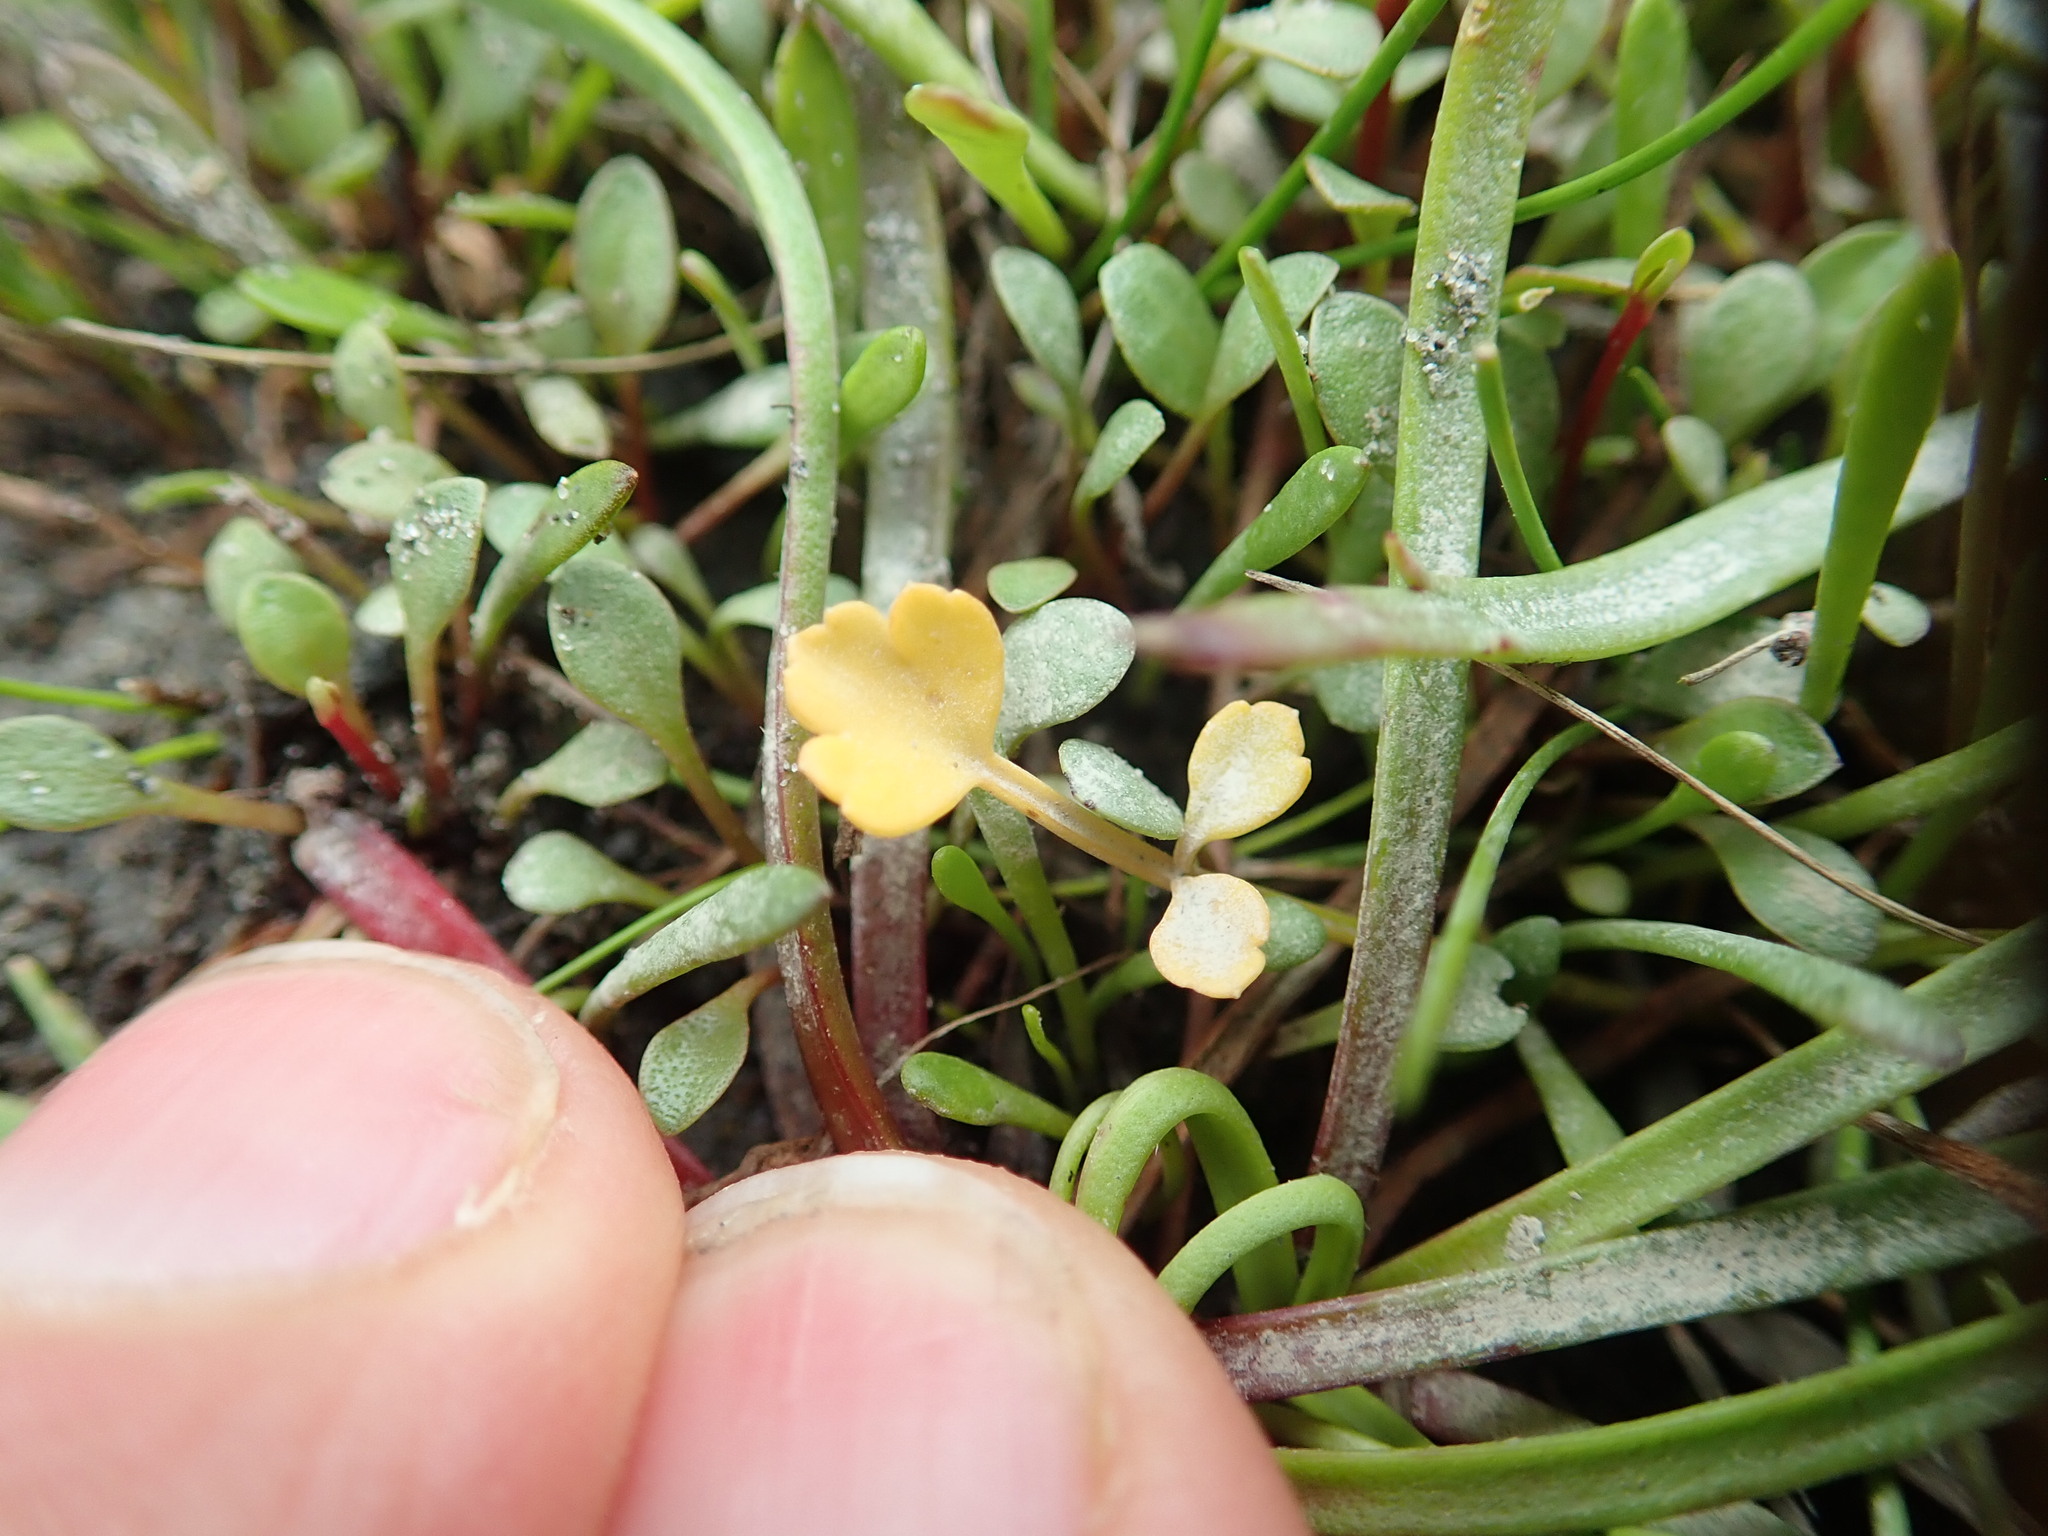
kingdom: Plantae
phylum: Tracheophyta
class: Magnoliopsida
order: Apiales
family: Apiaceae
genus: Apium
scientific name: Apium prostratum
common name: Prostrate marshwort
